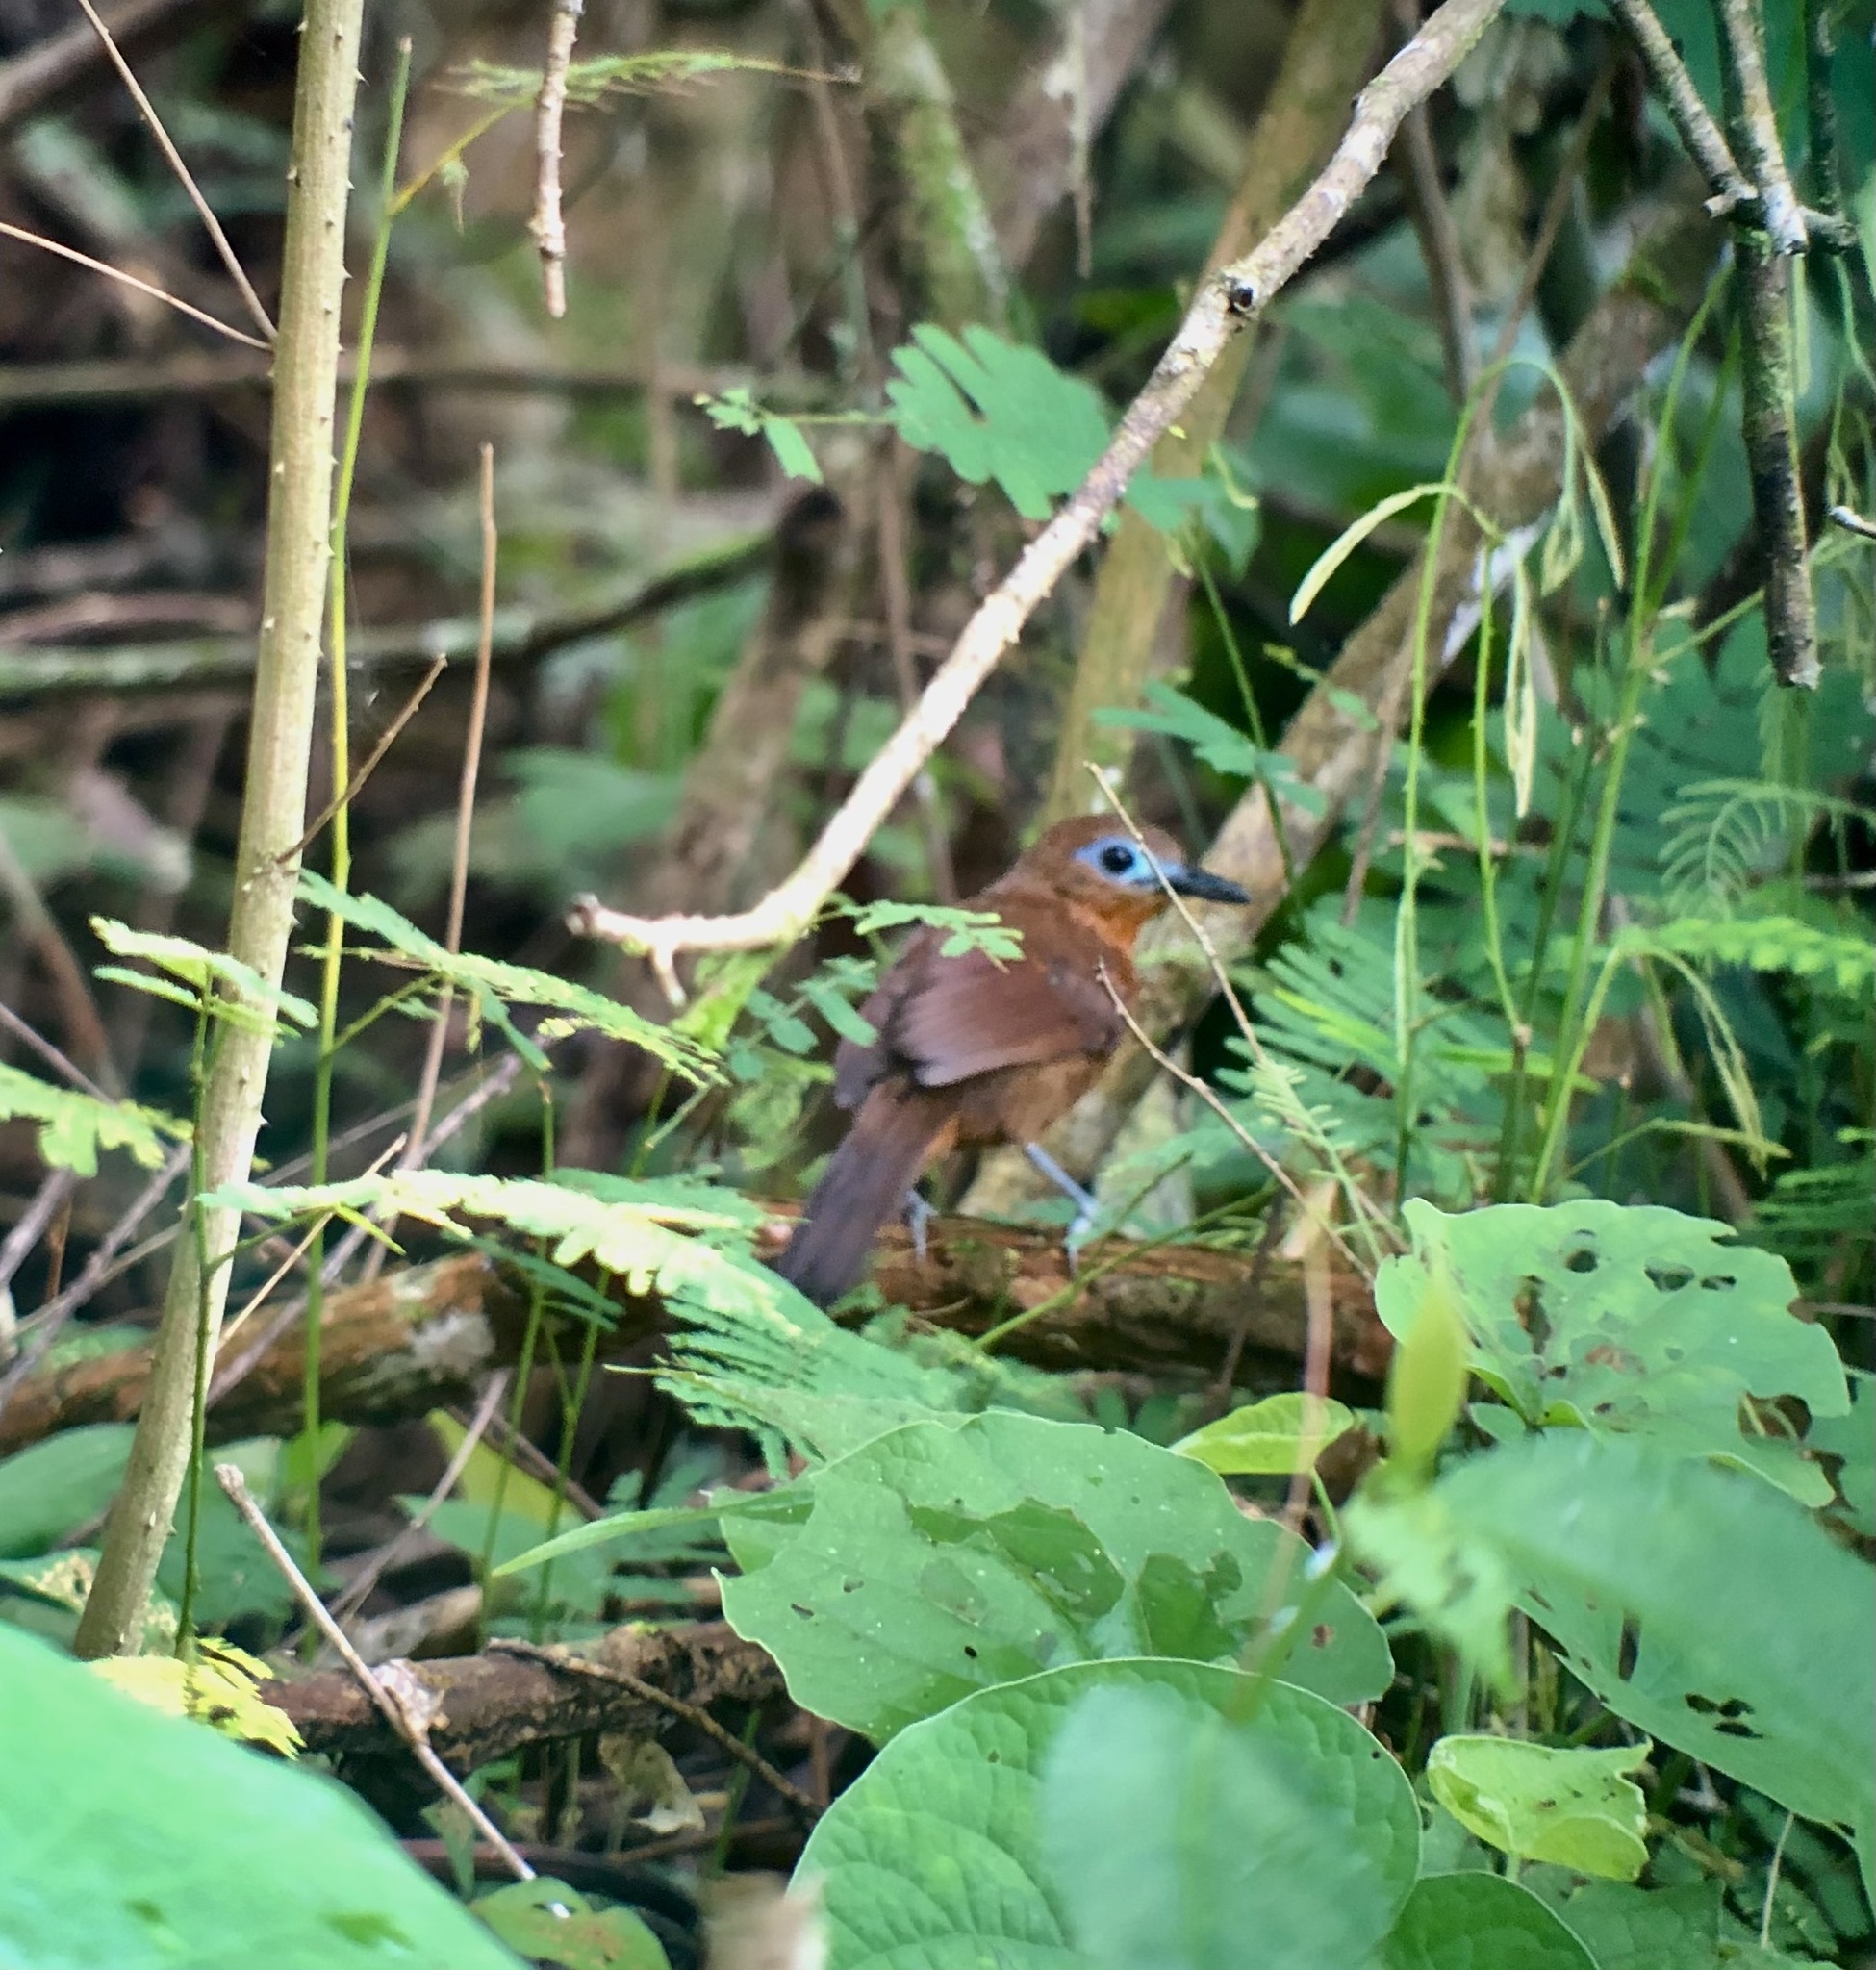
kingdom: Animalia
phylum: Chordata
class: Aves
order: Passeriformes
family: Thamnophilidae
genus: Myrmeciza
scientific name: Myrmeciza exsul
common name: Chestnut-backed antbird
